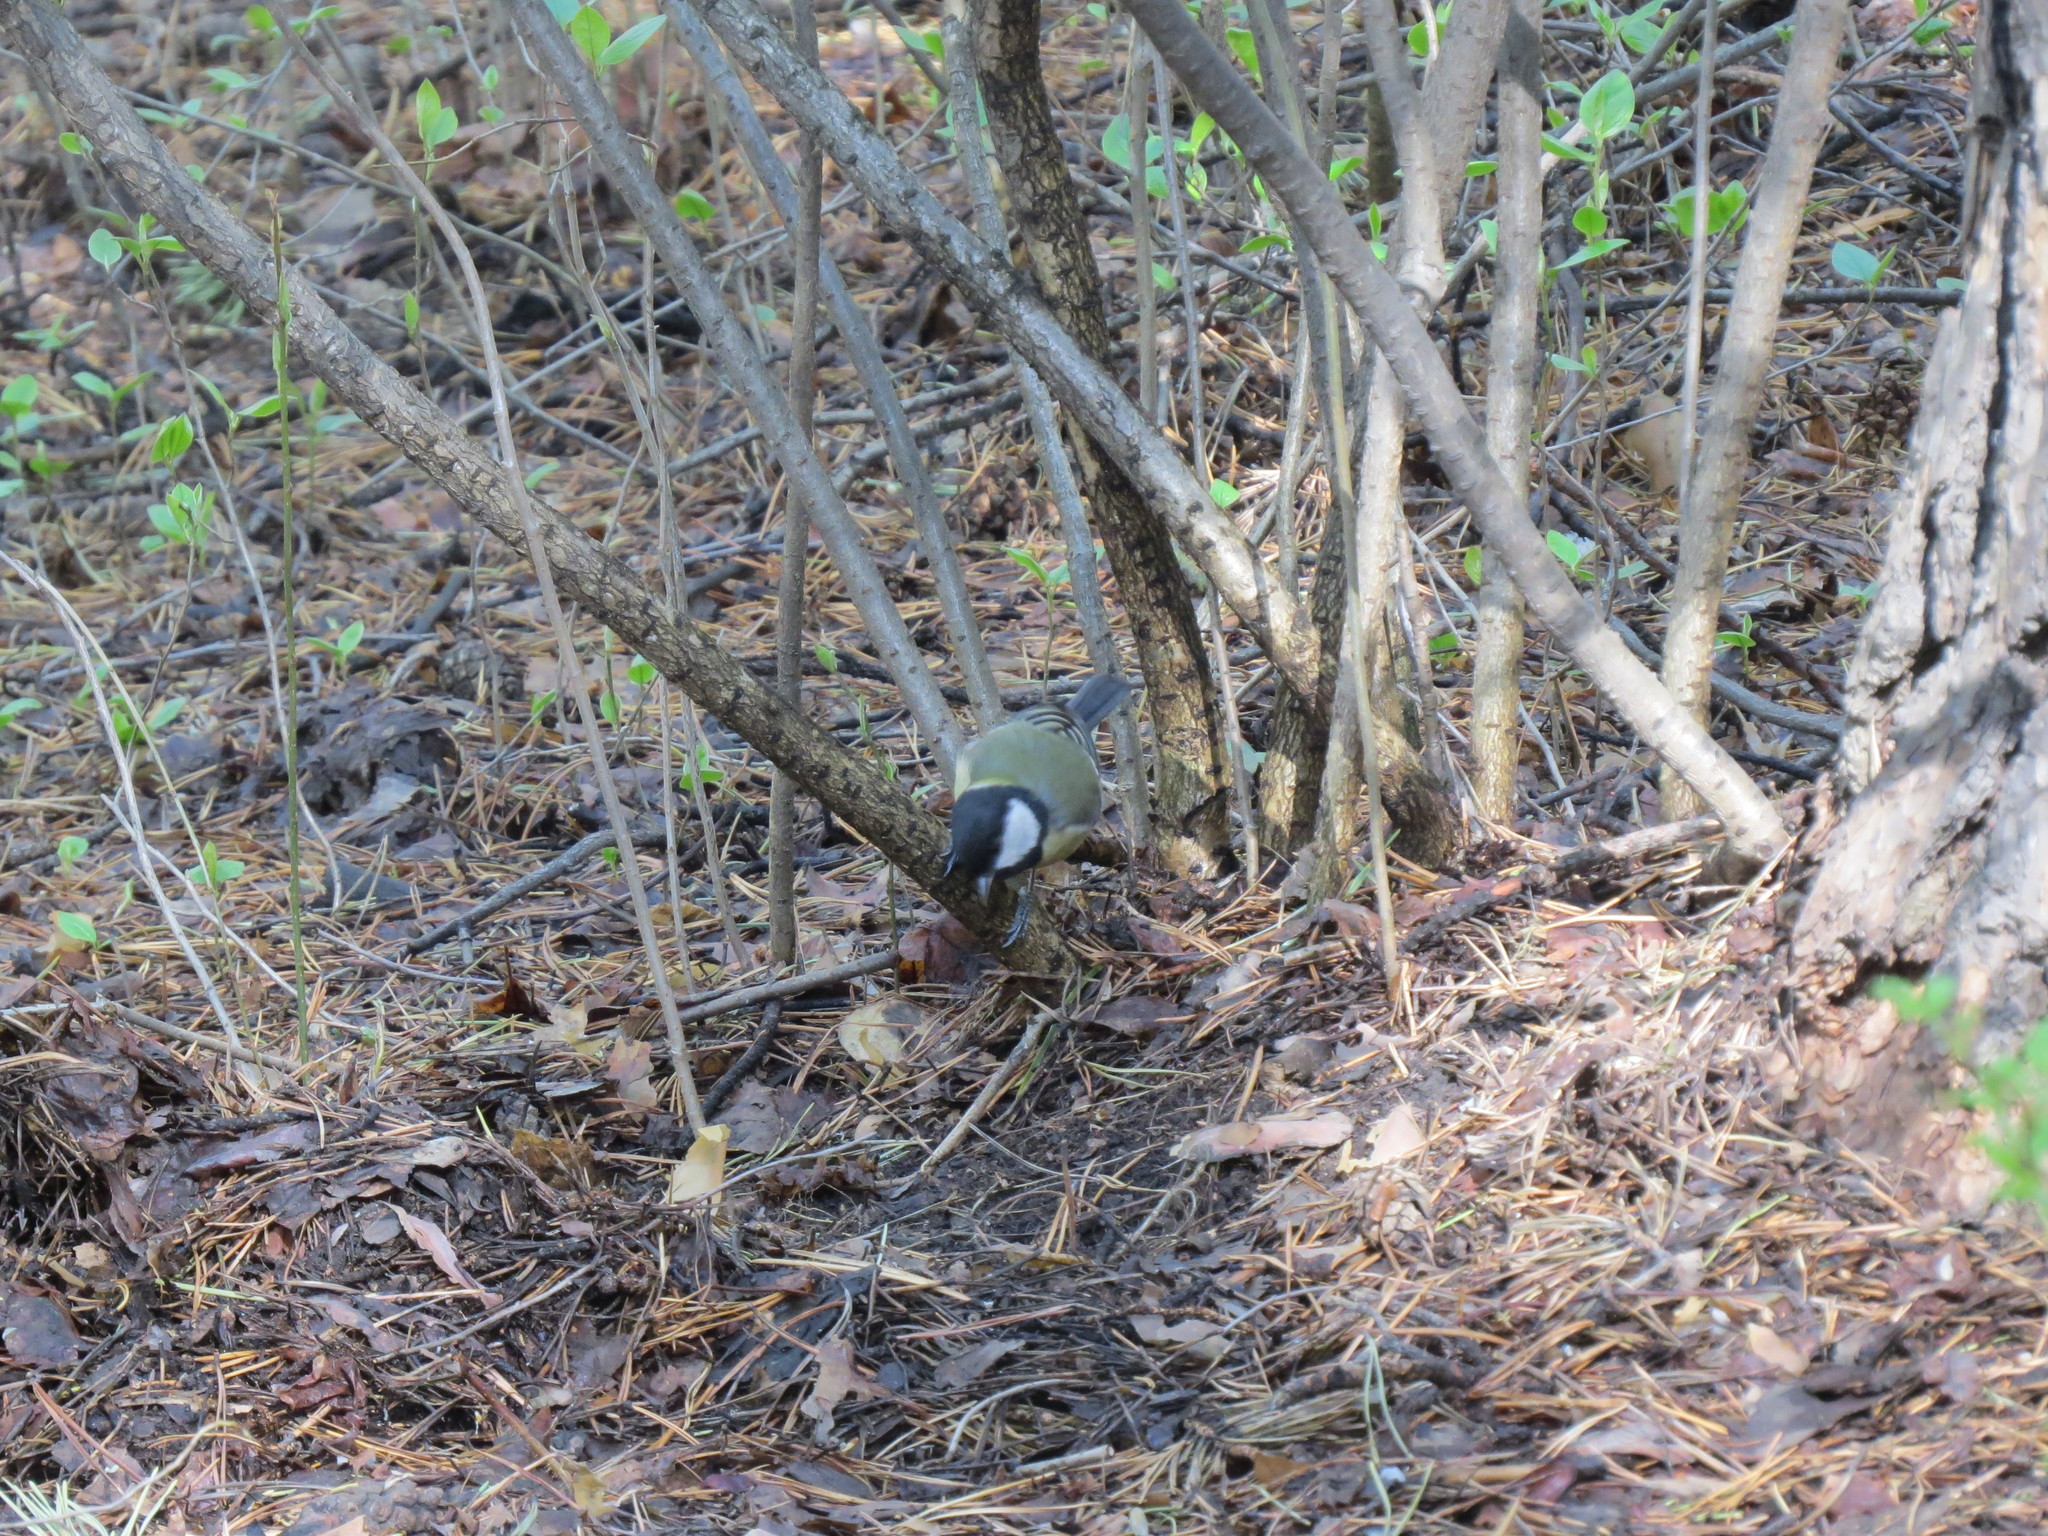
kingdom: Animalia
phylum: Chordata
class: Aves
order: Passeriformes
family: Paridae
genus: Parus
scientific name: Parus major
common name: Great tit
